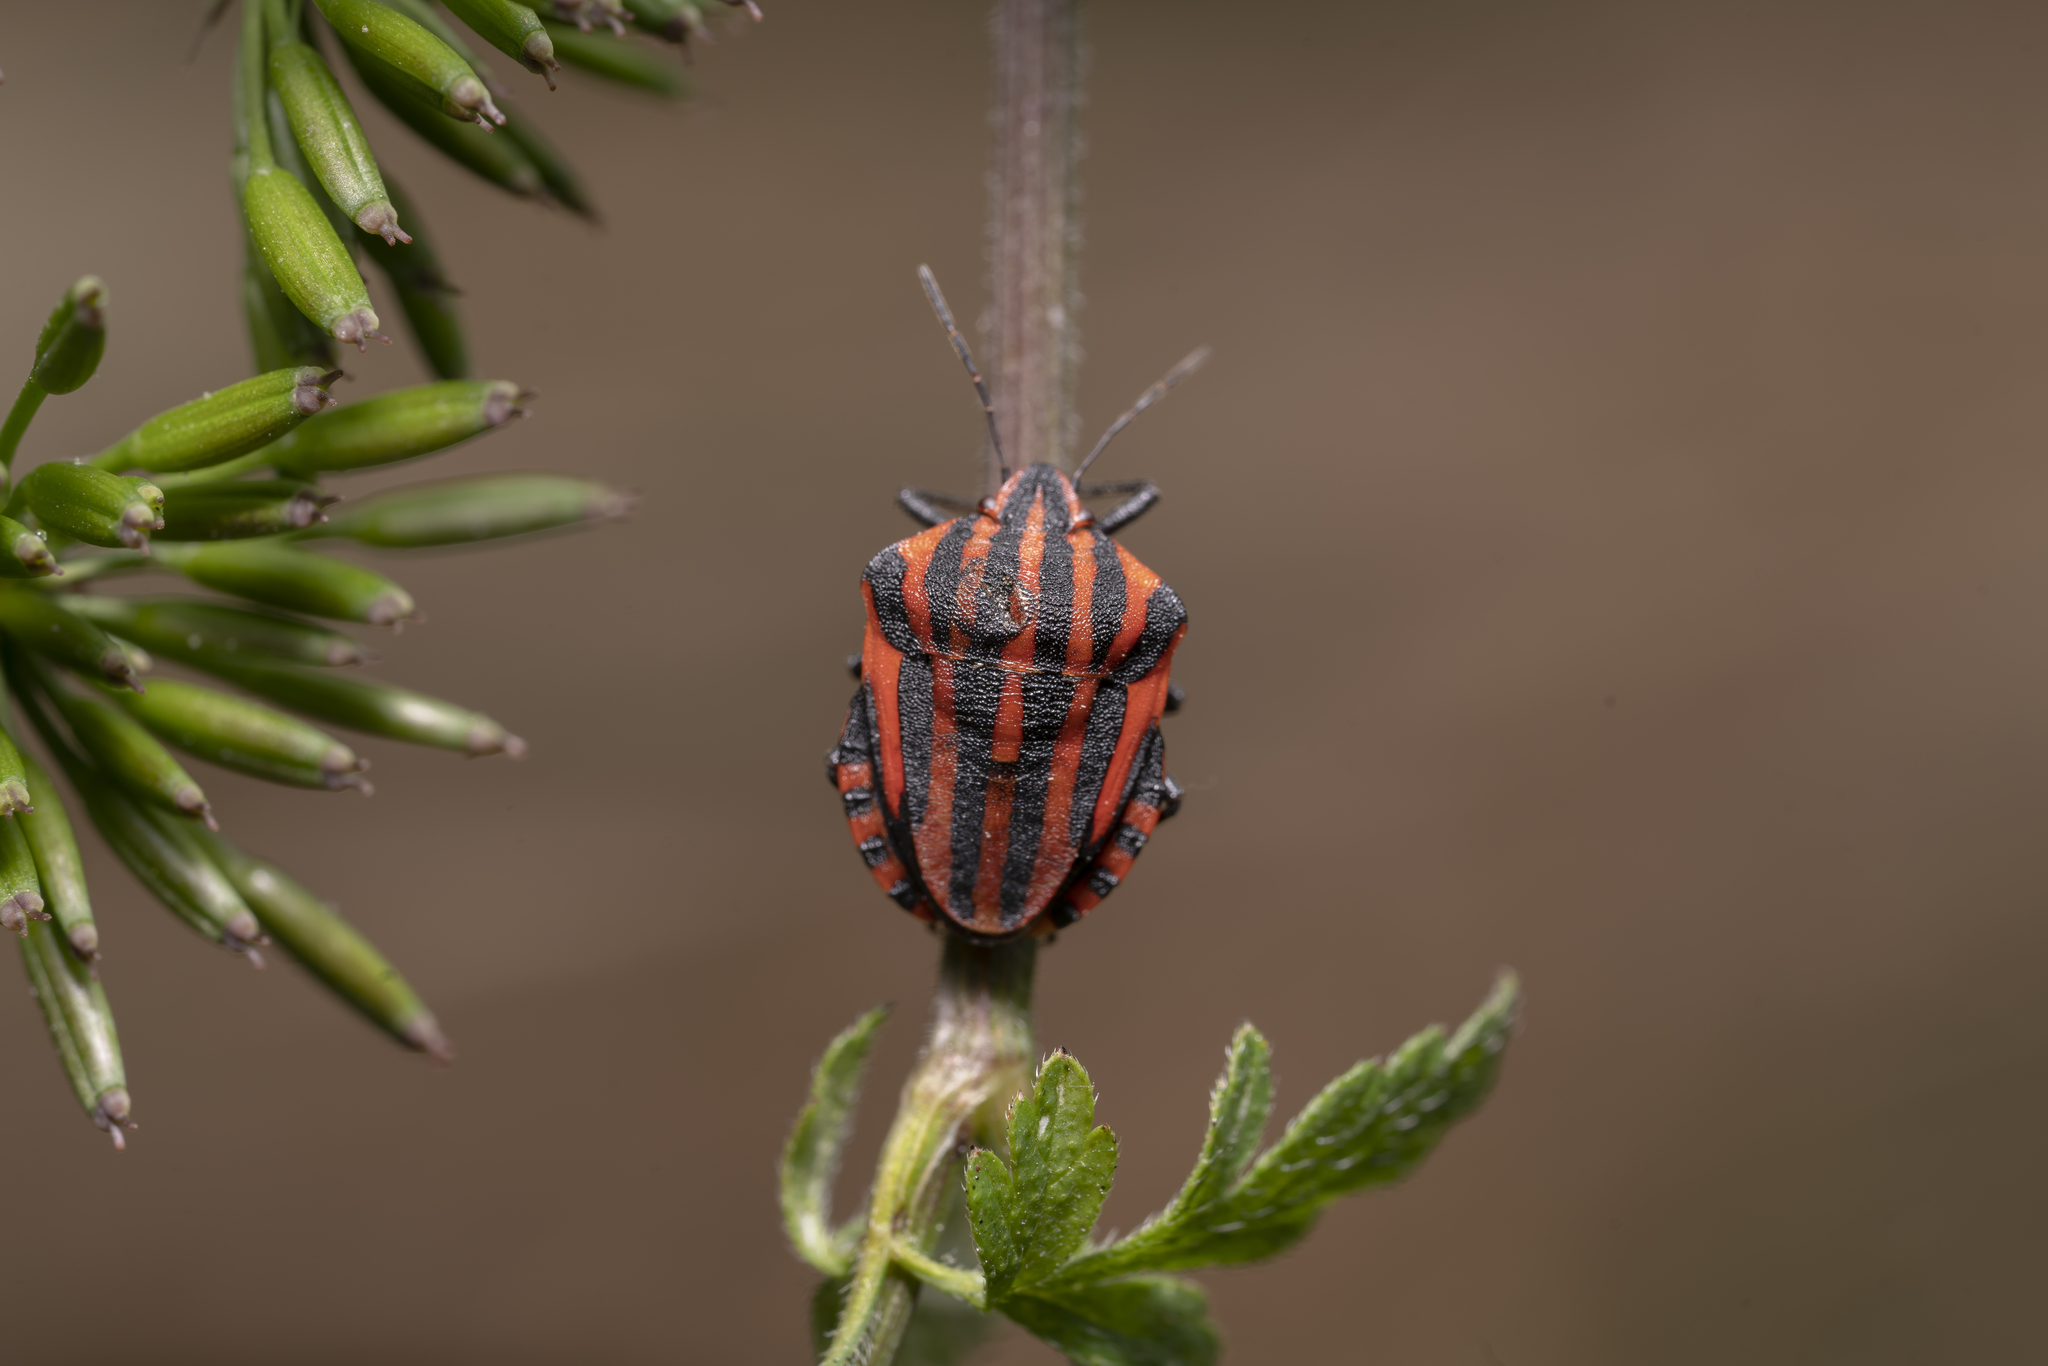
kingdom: Animalia
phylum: Arthropoda
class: Insecta
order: Hemiptera
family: Pentatomidae
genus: Graphosoma
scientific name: Graphosoma italicum
